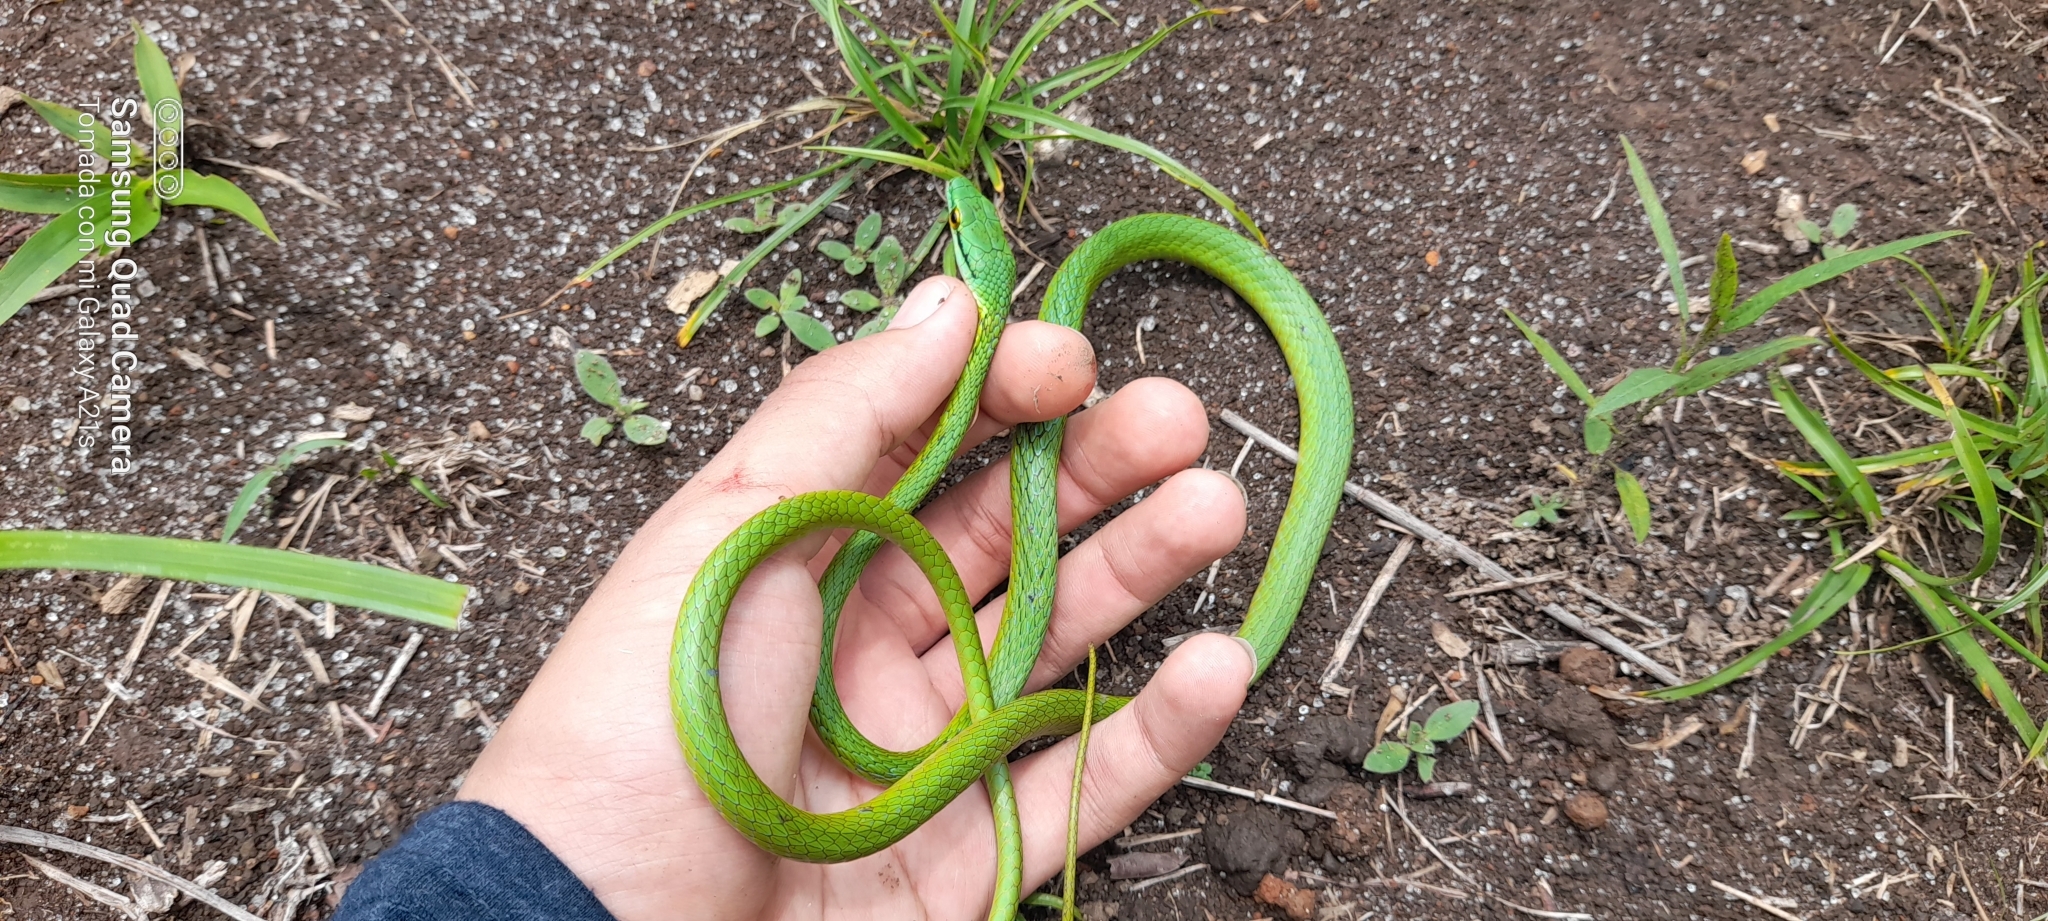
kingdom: Animalia
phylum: Chordata
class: Squamata
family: Colubridae
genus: Leptophis
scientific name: Leptophis ahaetulla
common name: Parrot snake
